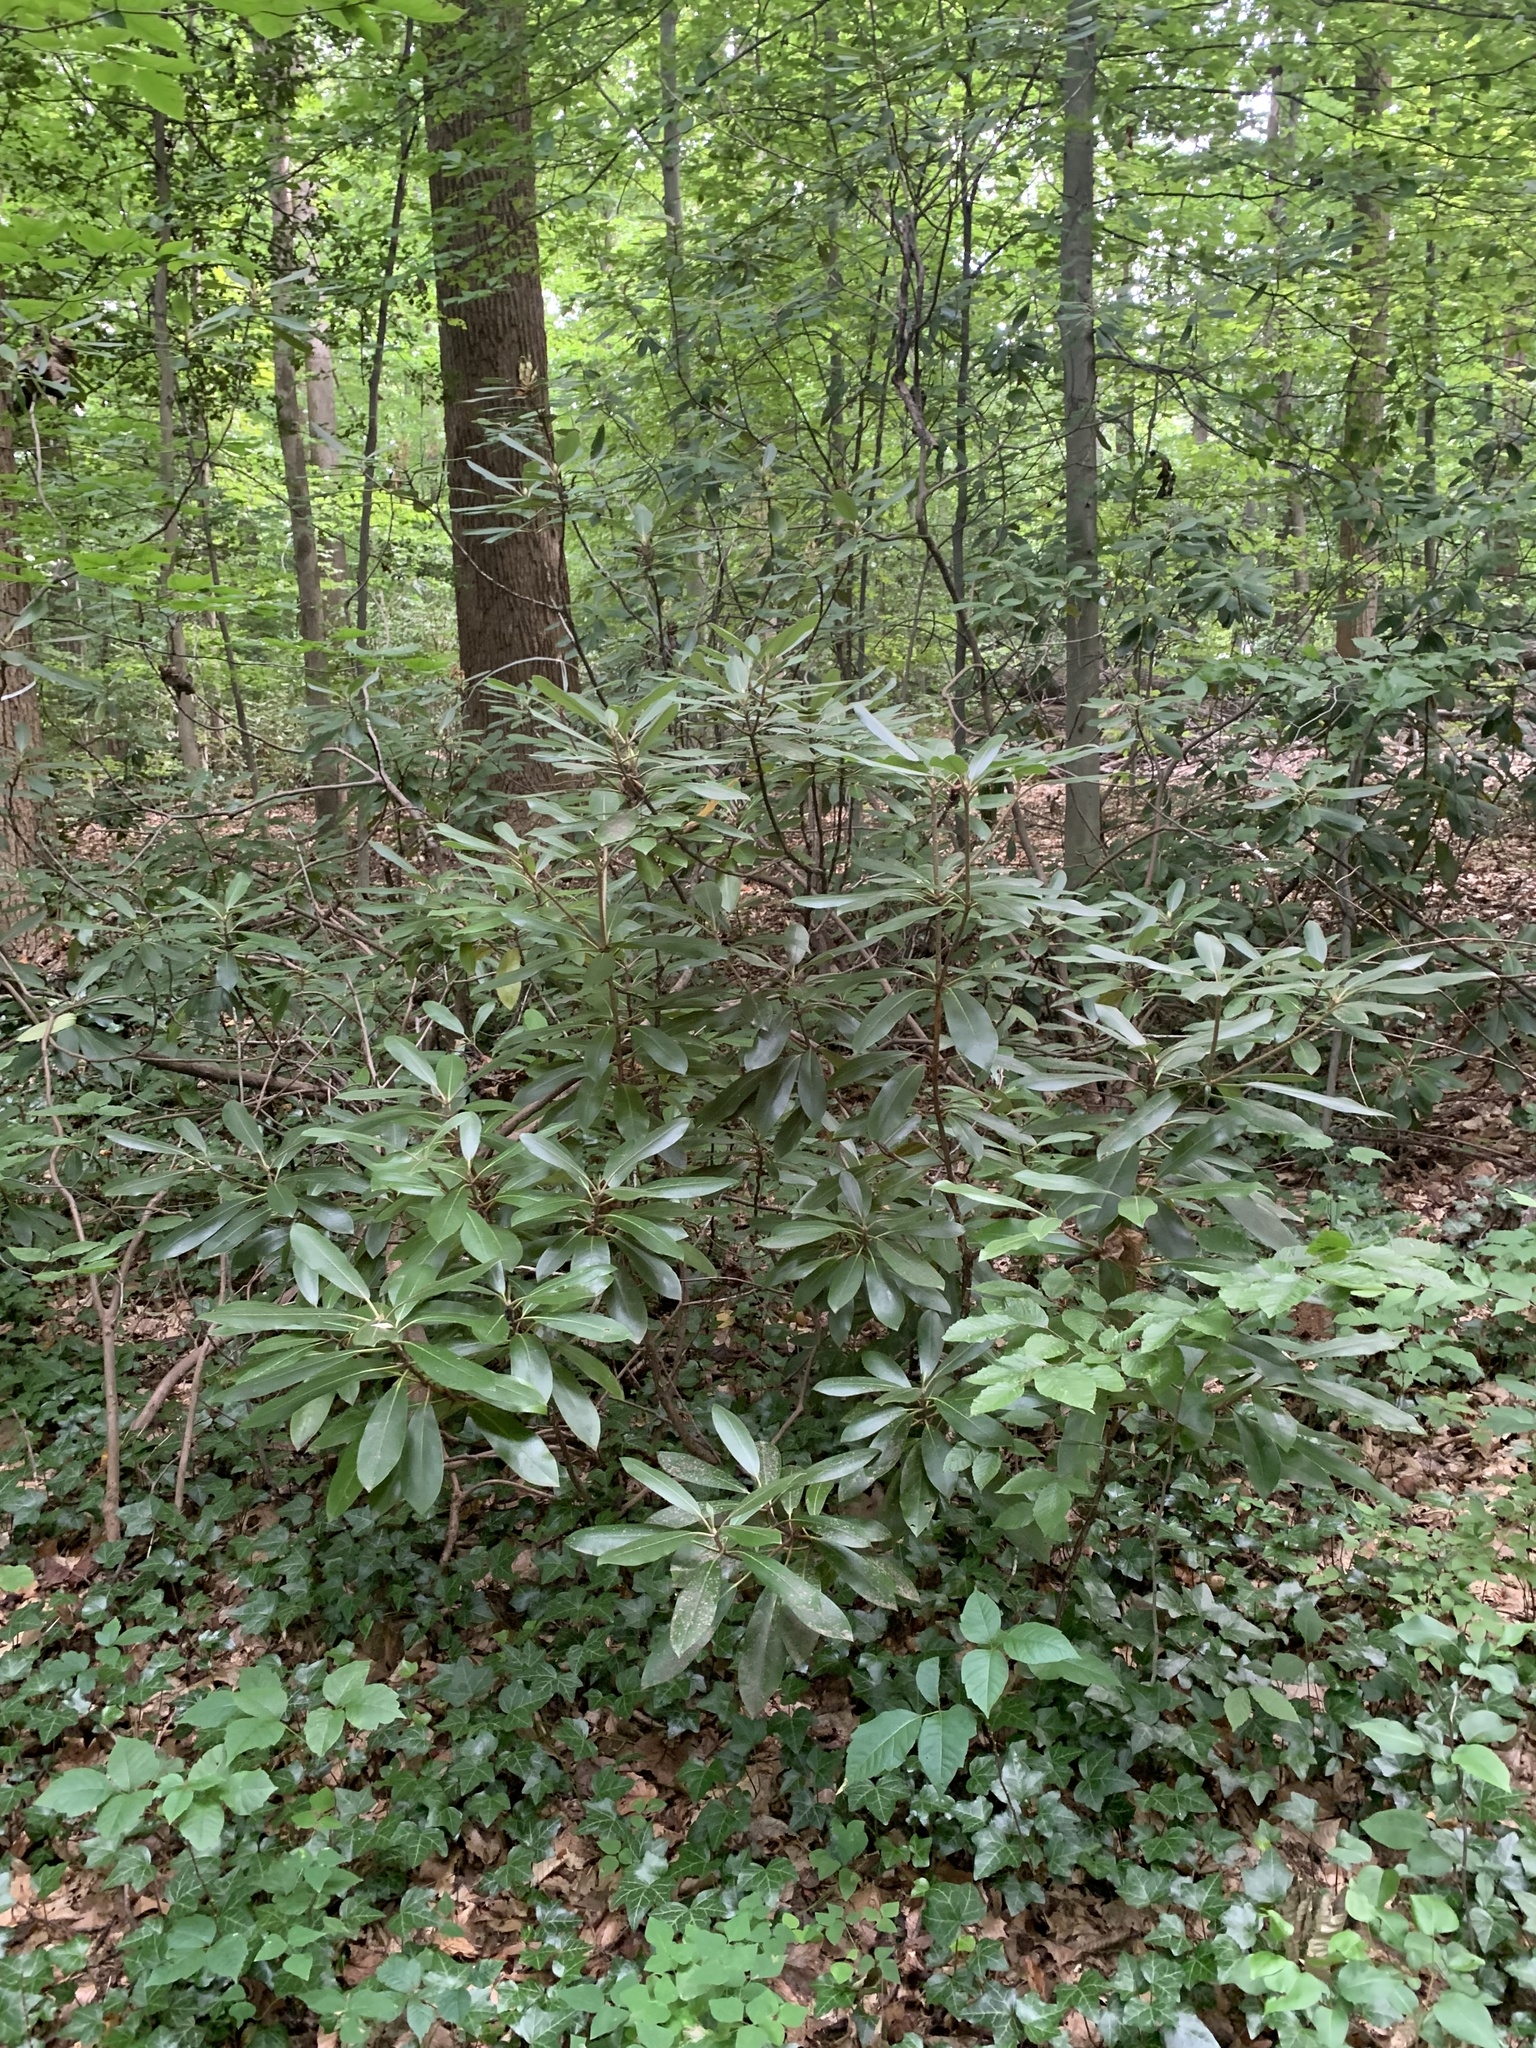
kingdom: Plantae
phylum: Tracheophyta
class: Magnoliopsida
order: Ericales
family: Ericaceae
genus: Rhododendron
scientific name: Rhododendron maximum
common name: Great rhododendron
